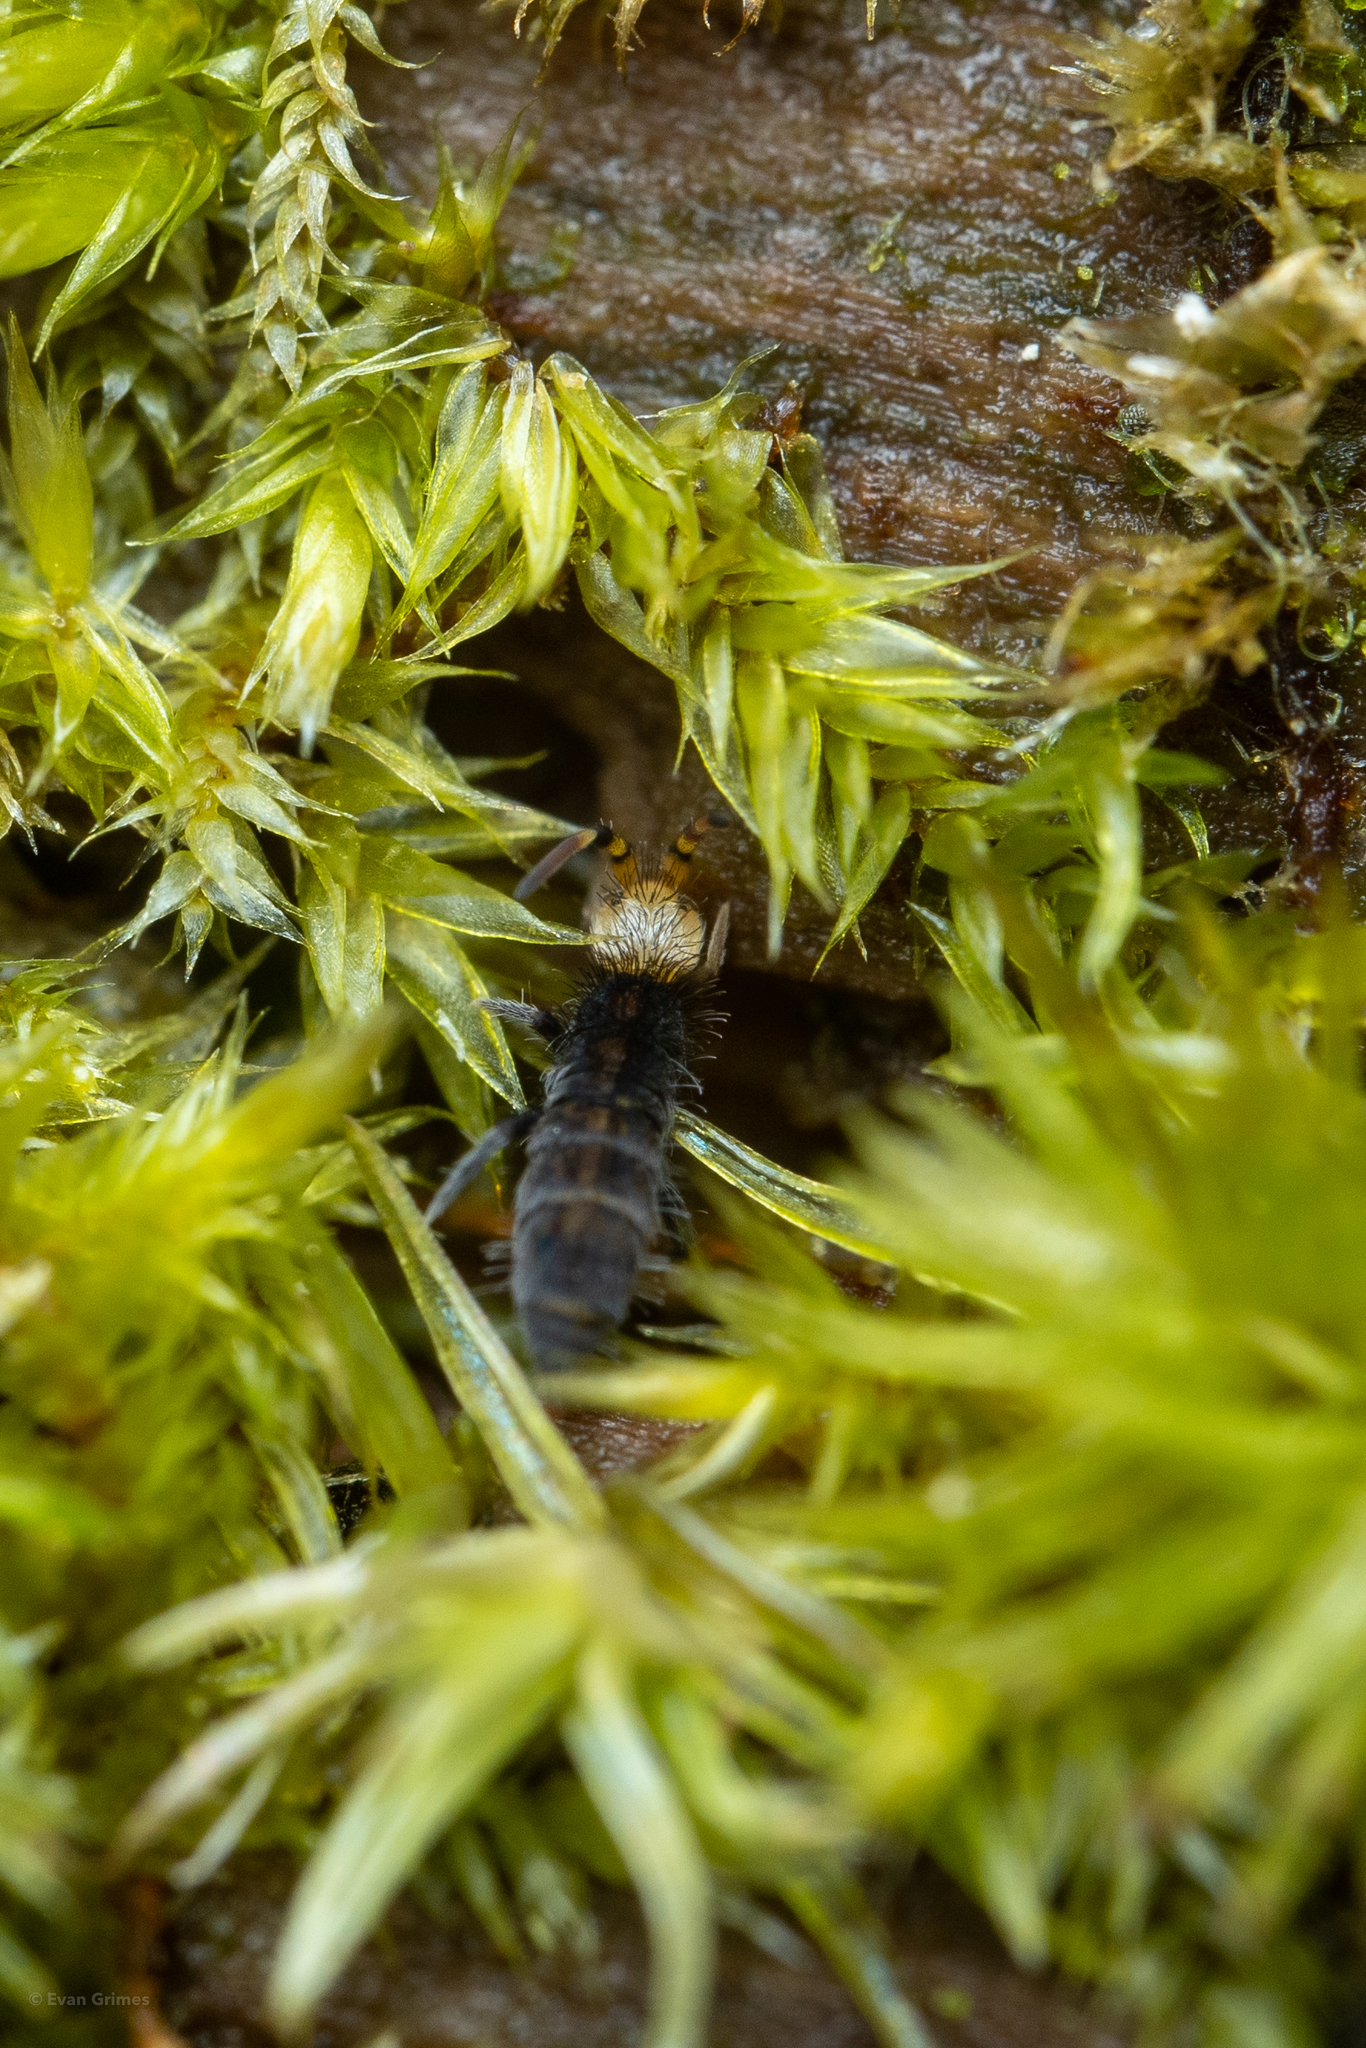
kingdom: Animalia
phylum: Arthropoda
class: Collembola
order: Entomobryomorpha
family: Orchesellidae
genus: Orchesella
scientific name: Orchesella carneiceps
